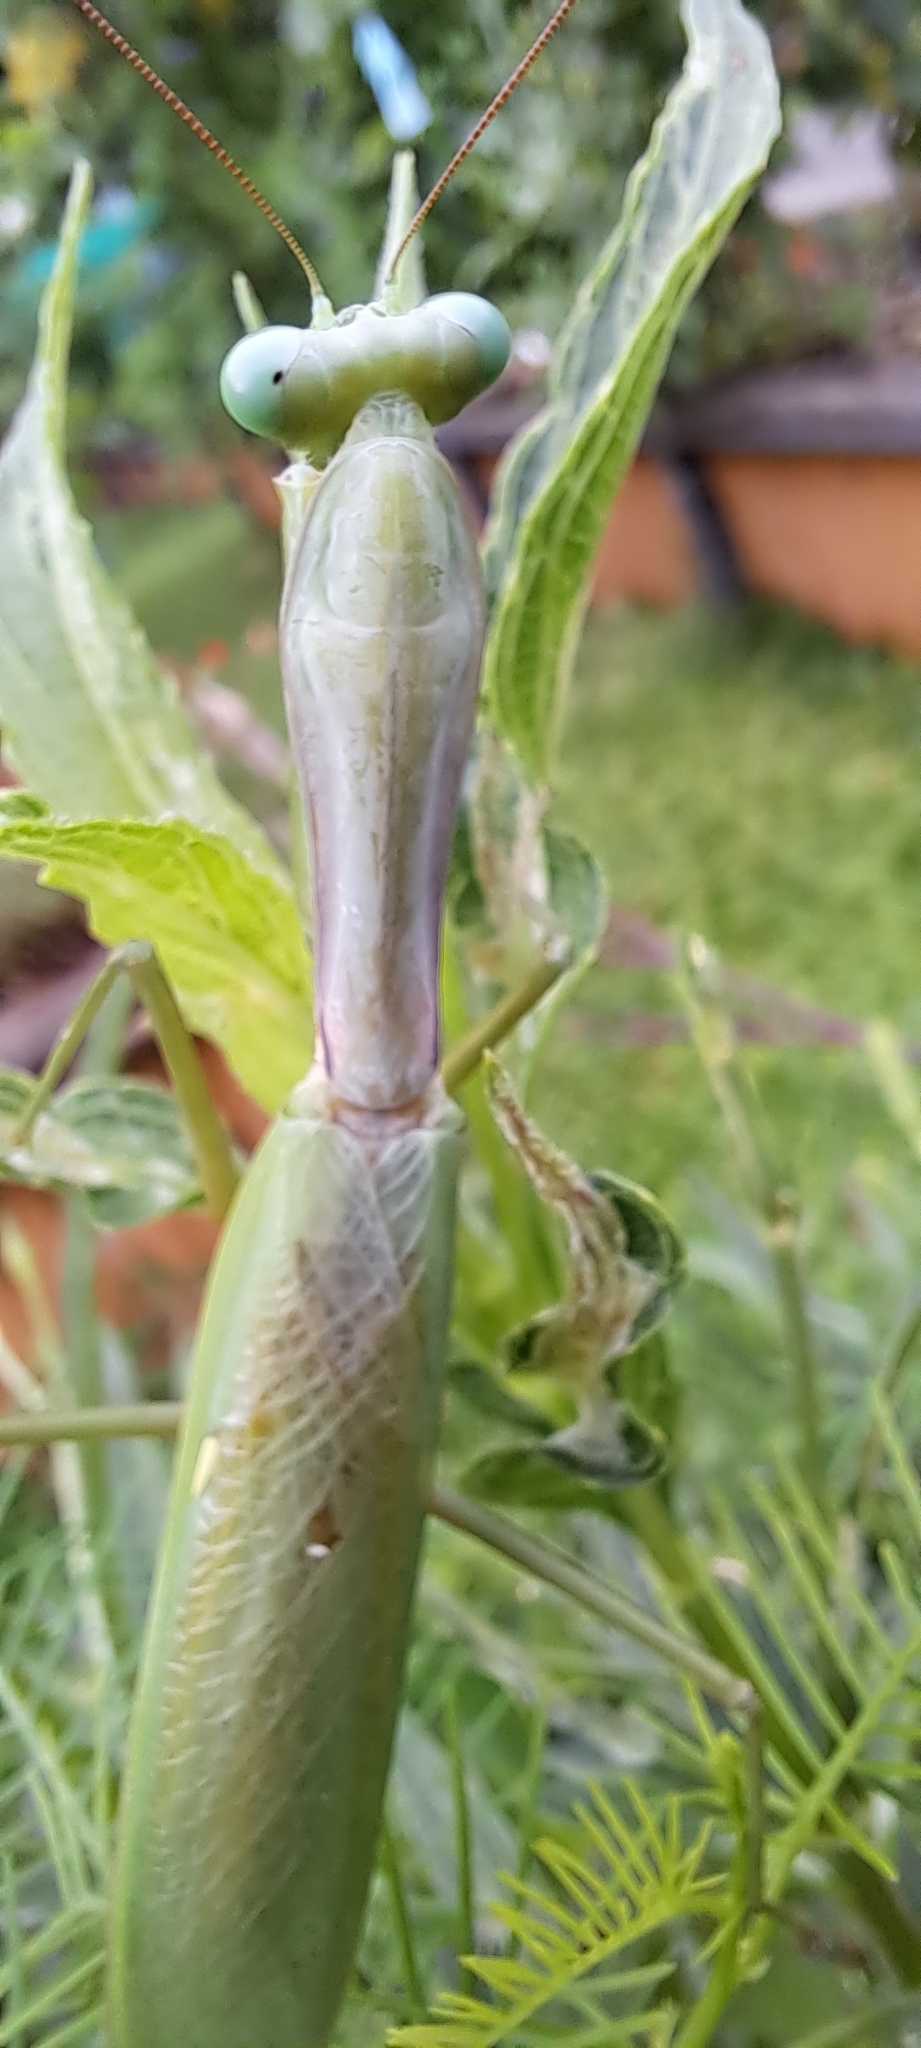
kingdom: Animalia
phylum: Arthropoda
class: Insecta
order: Mantodea
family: Mantidae
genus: Hierodula
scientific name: Hierodula venosa
